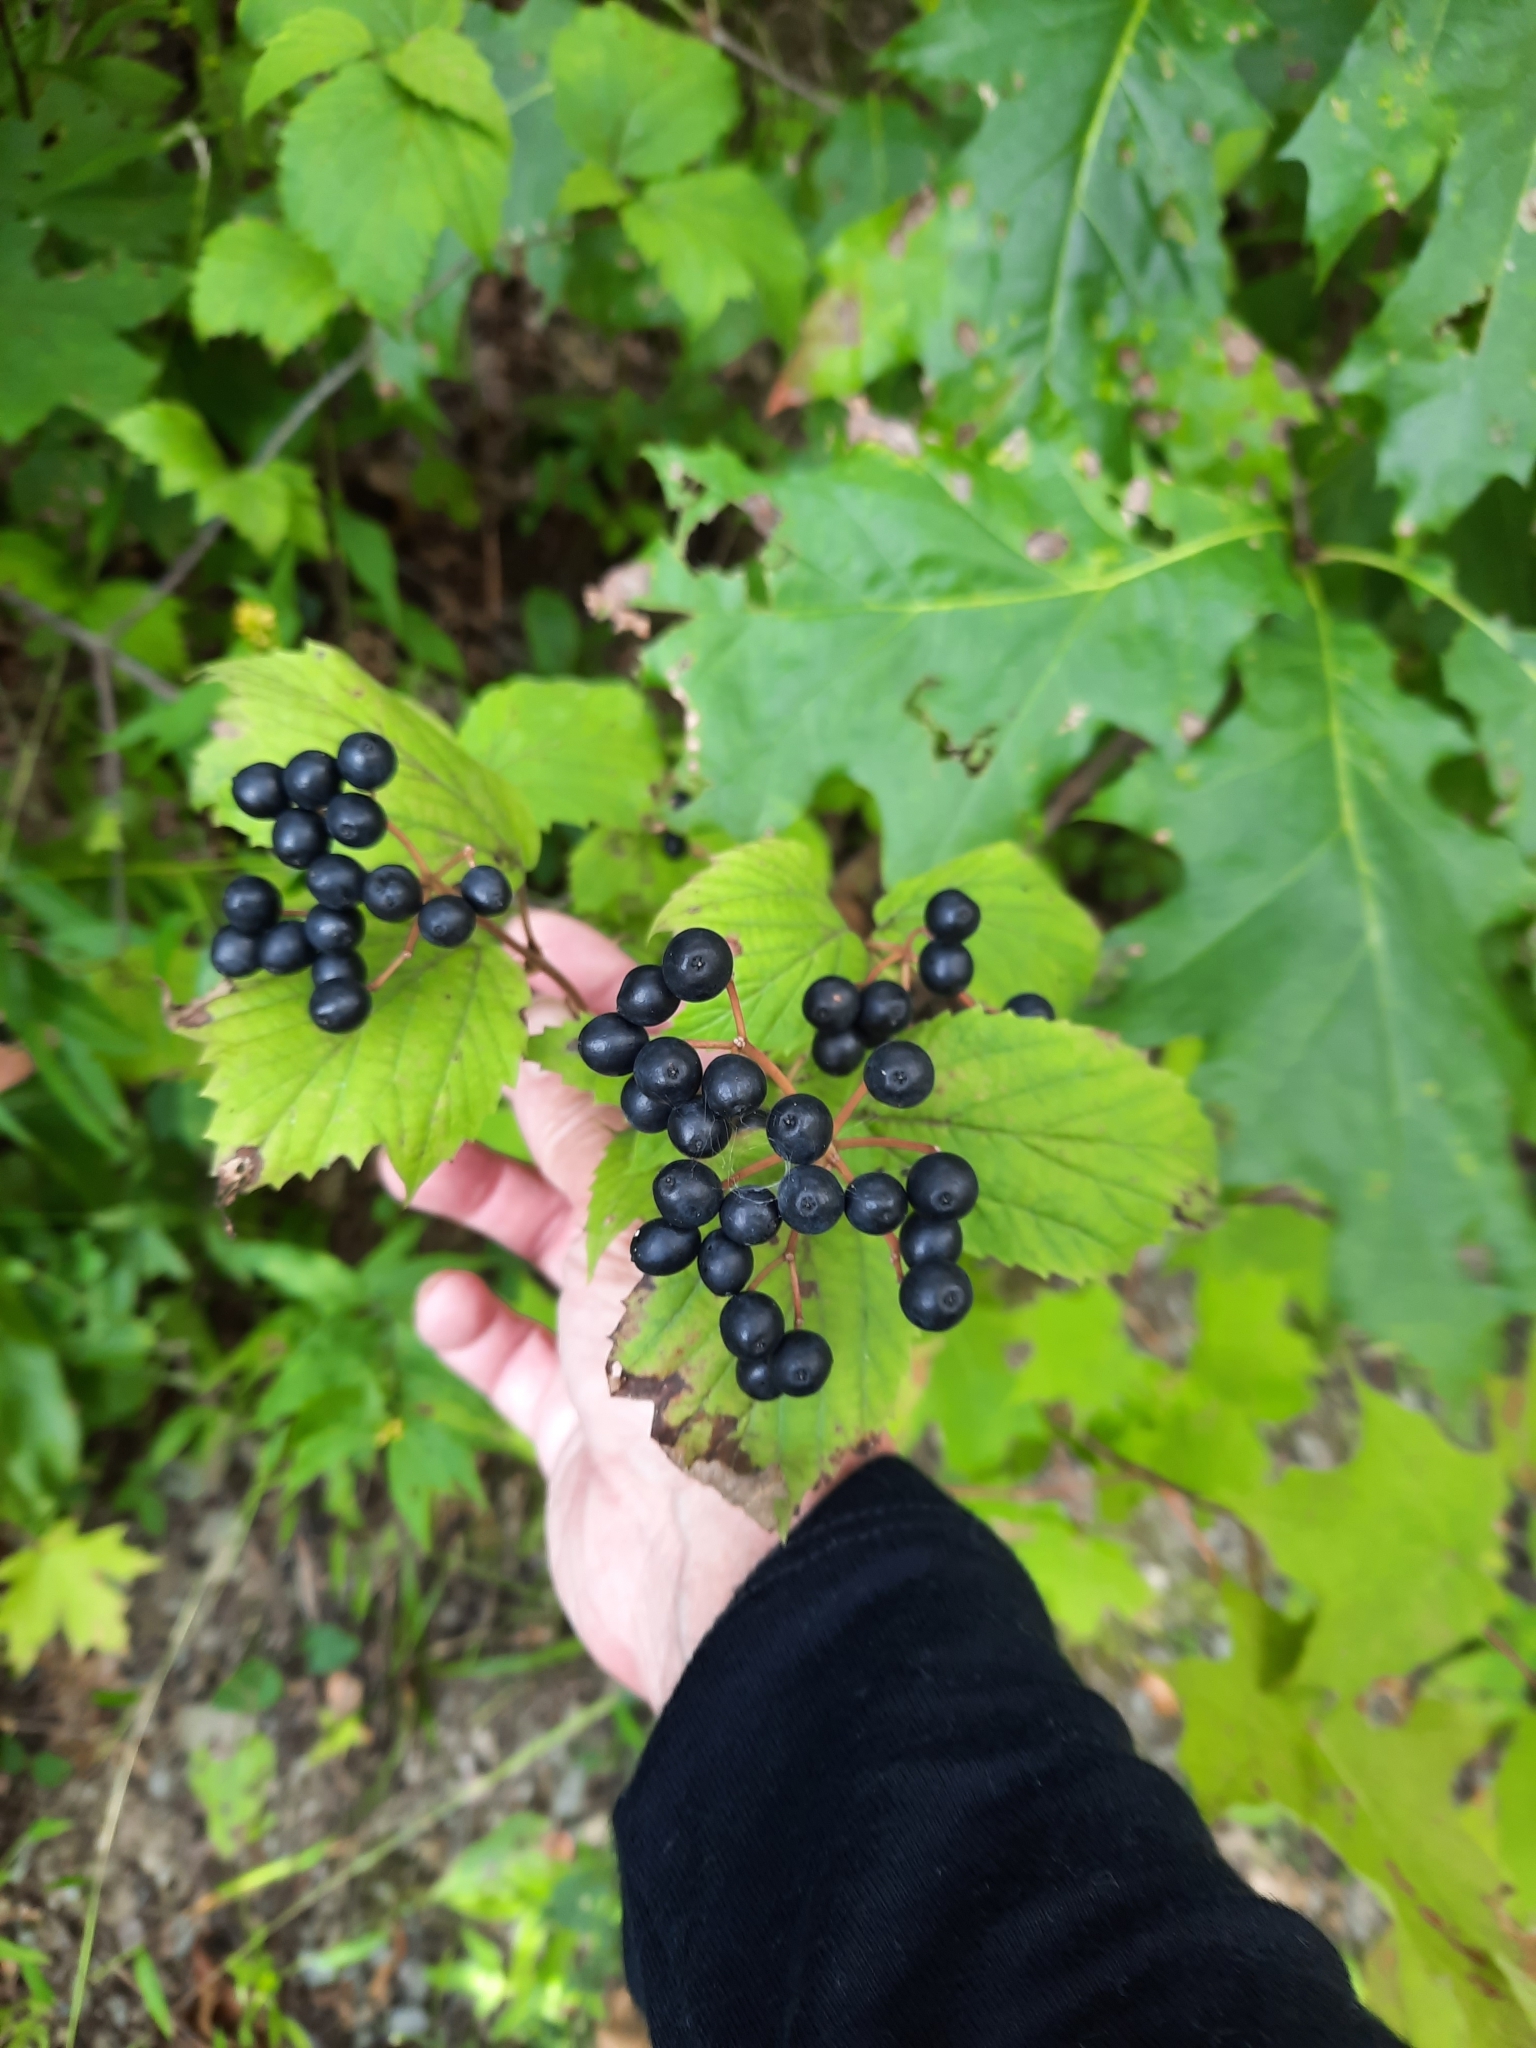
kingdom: Plantae
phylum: Tracheophyta
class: Magnoliopsida
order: Dipsacales
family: Viburnaceae
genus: Viburnum
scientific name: Viburnum acerifolium
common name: Dockmackie
